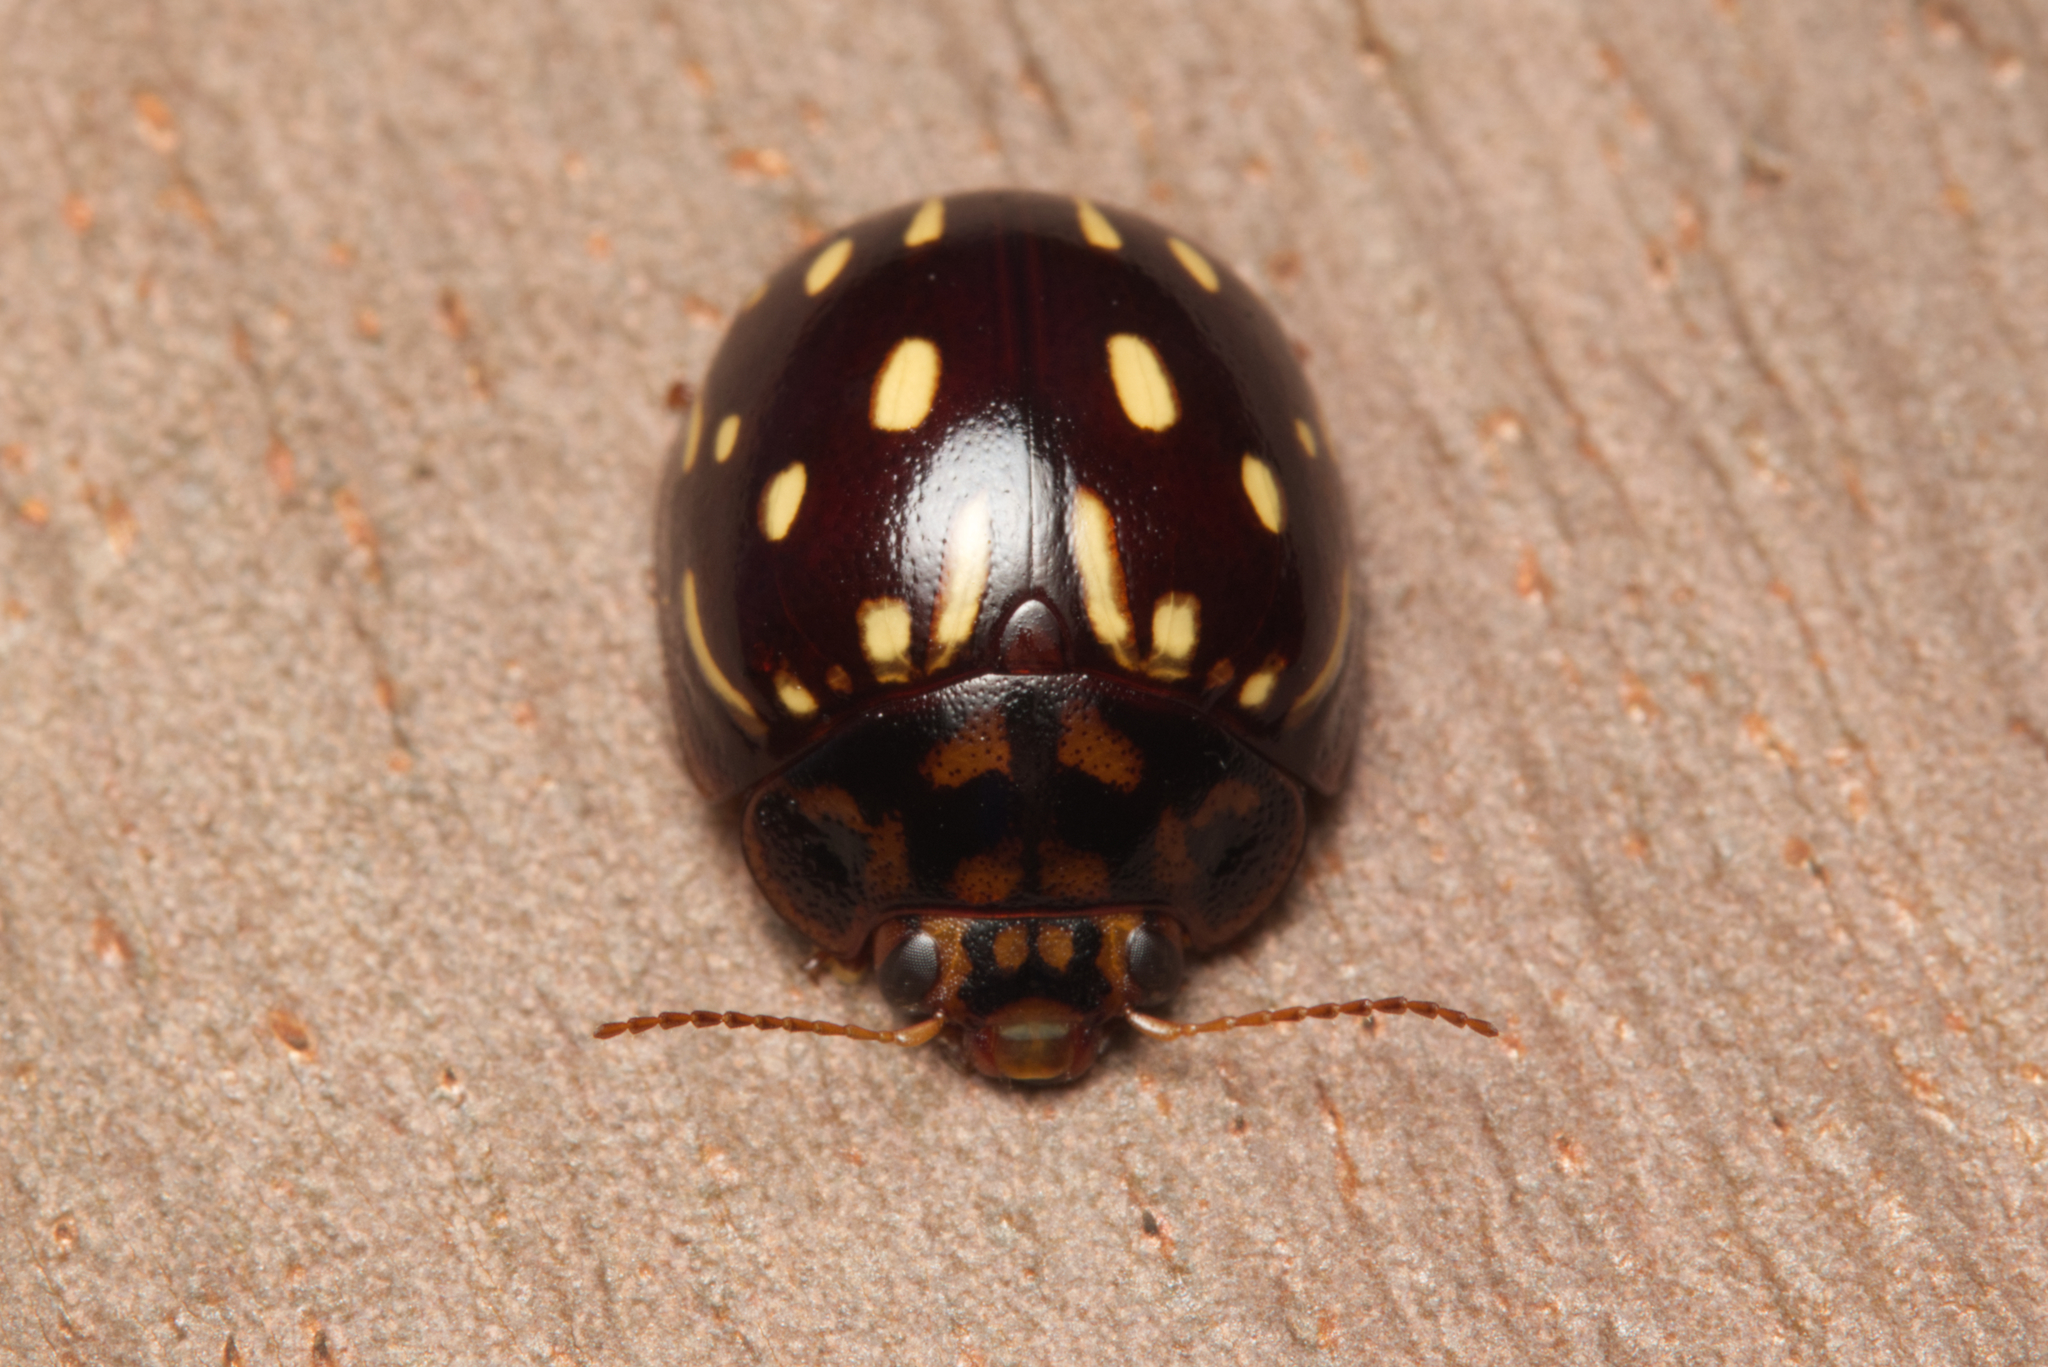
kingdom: Animalia
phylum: Arthropoda
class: Insecta
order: Coleoptera
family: Chrysomelidae
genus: Paropsisterna
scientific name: Paropsisterna
